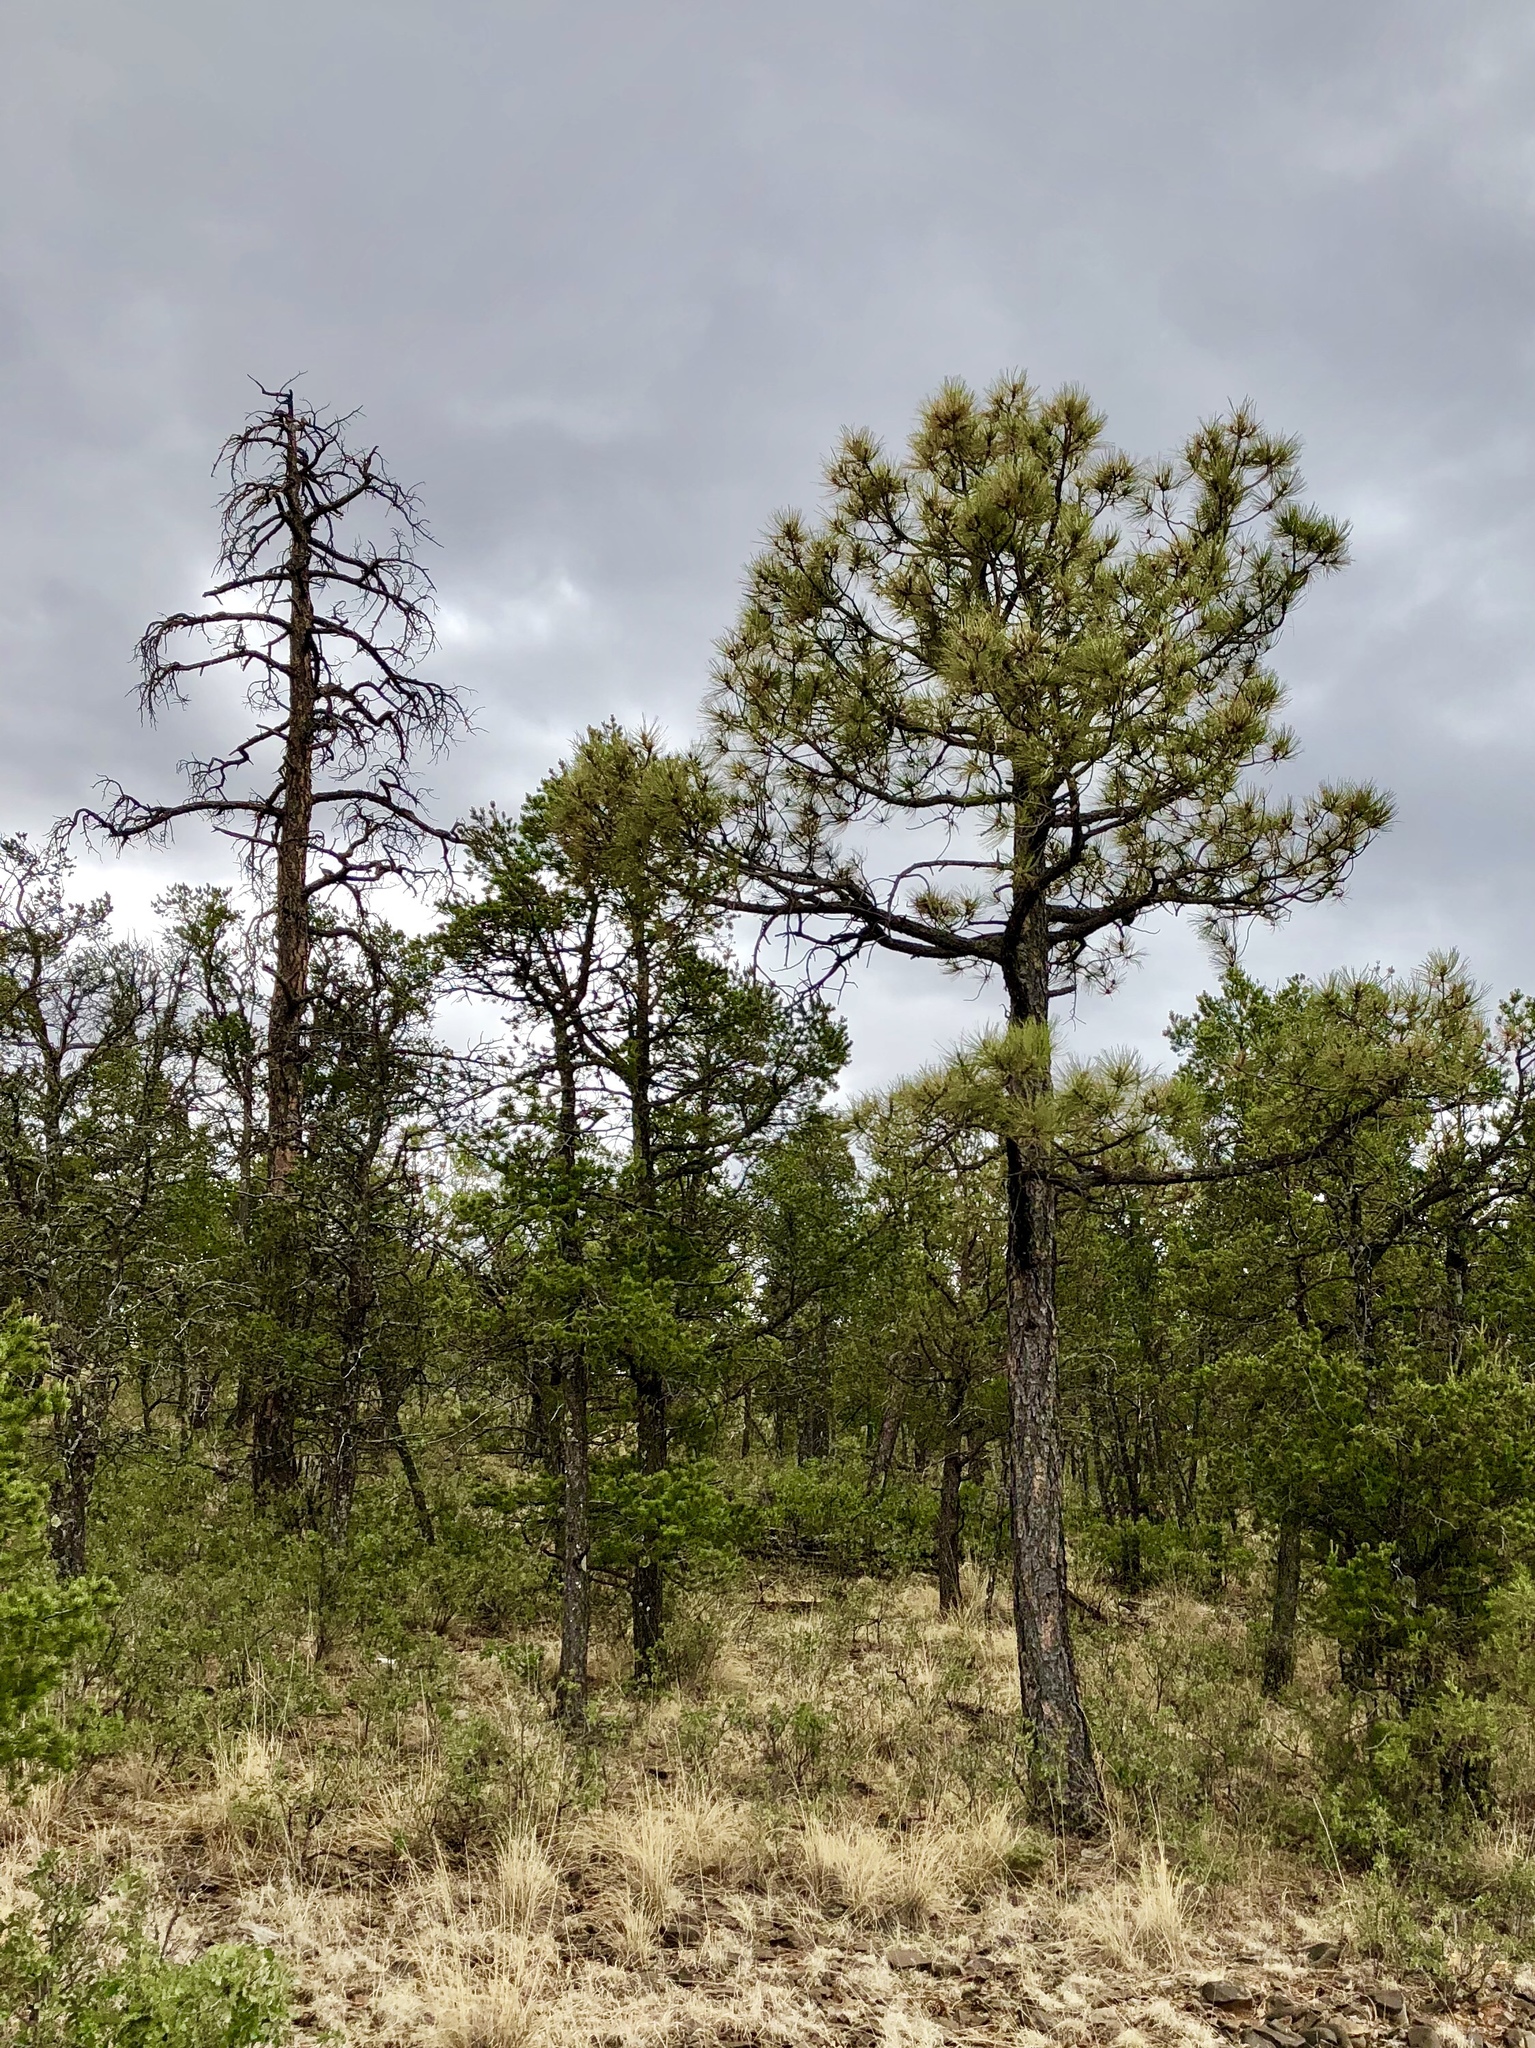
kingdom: Plantae
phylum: Tracheophyta
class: Pinopsida
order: Pinales
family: Pinaceae
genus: Pinus
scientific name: Pinus ponderosa
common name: Western yellow-pine
